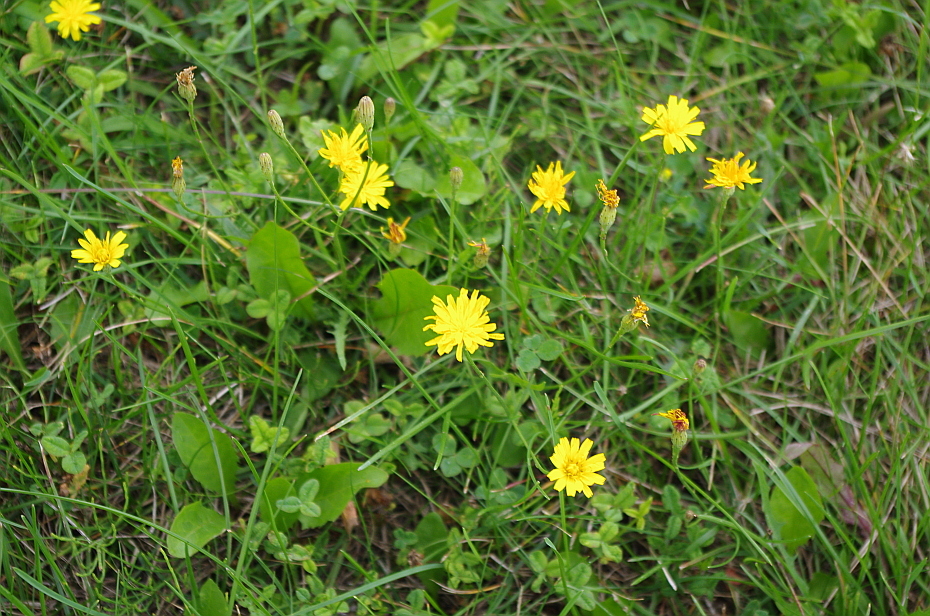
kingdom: Plantae
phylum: Tracheophyta
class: Magnoliopsida
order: Asterales
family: Asteraceae
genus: Scorzoneroides
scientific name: Scorzoneroides autumnalis
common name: Autumn hawkbit
